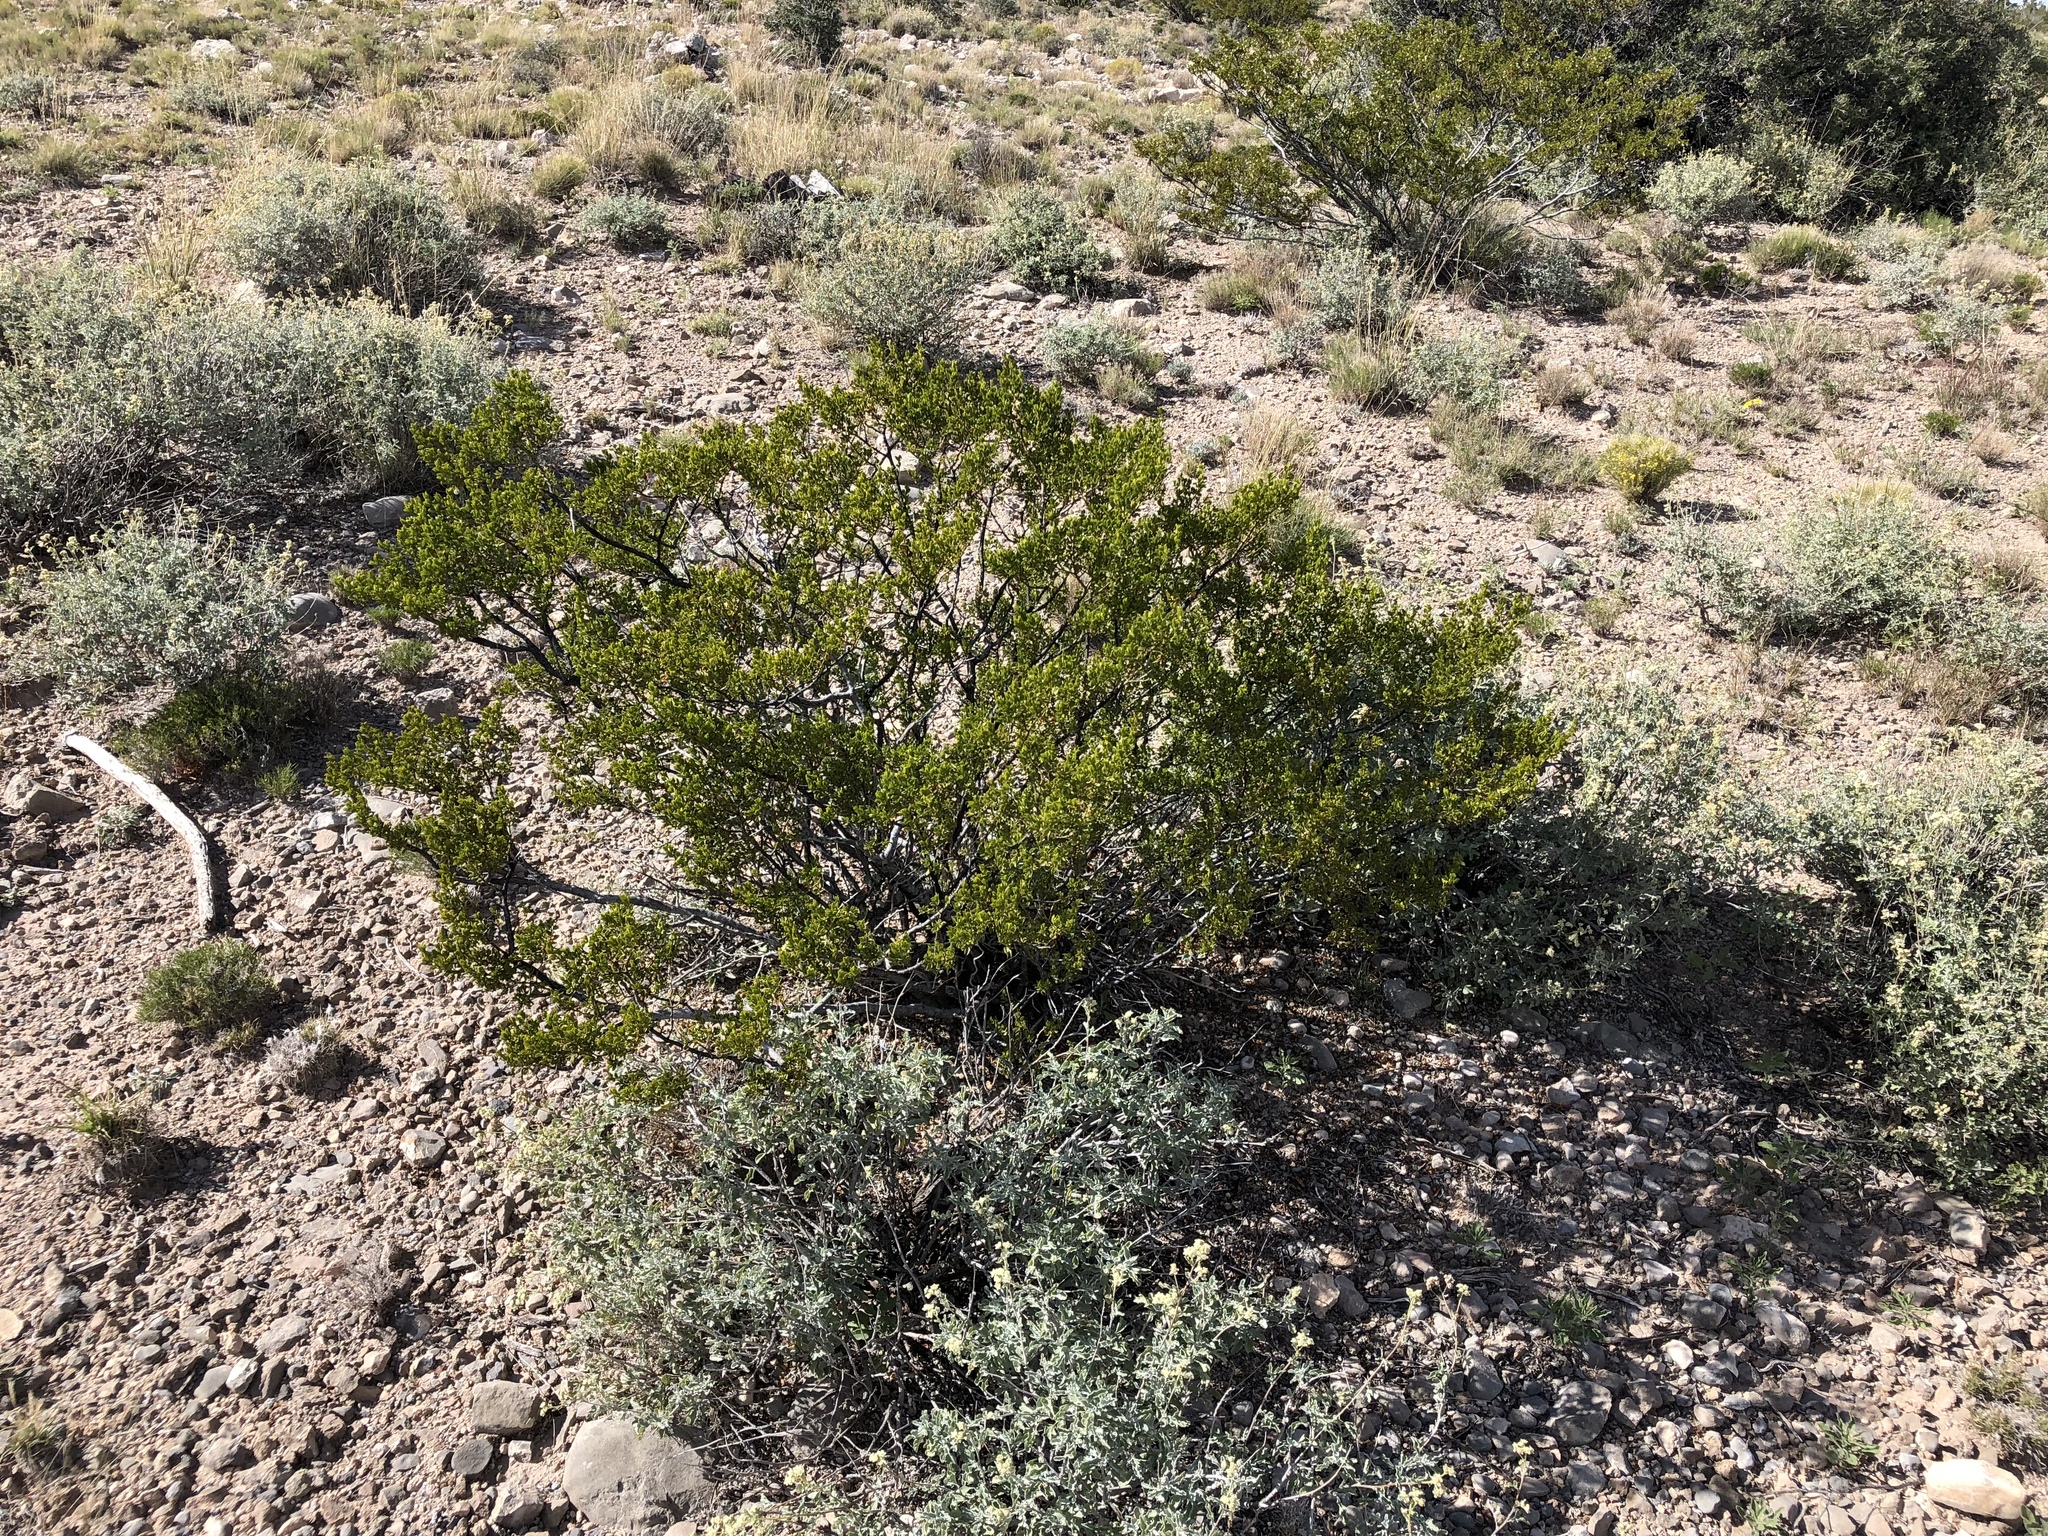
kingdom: Plantae
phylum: Tracheophyta
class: Magnoliopsida
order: Zygophyllales
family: Zygophyllaceae
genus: Larrea
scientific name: Larrea tridentata
